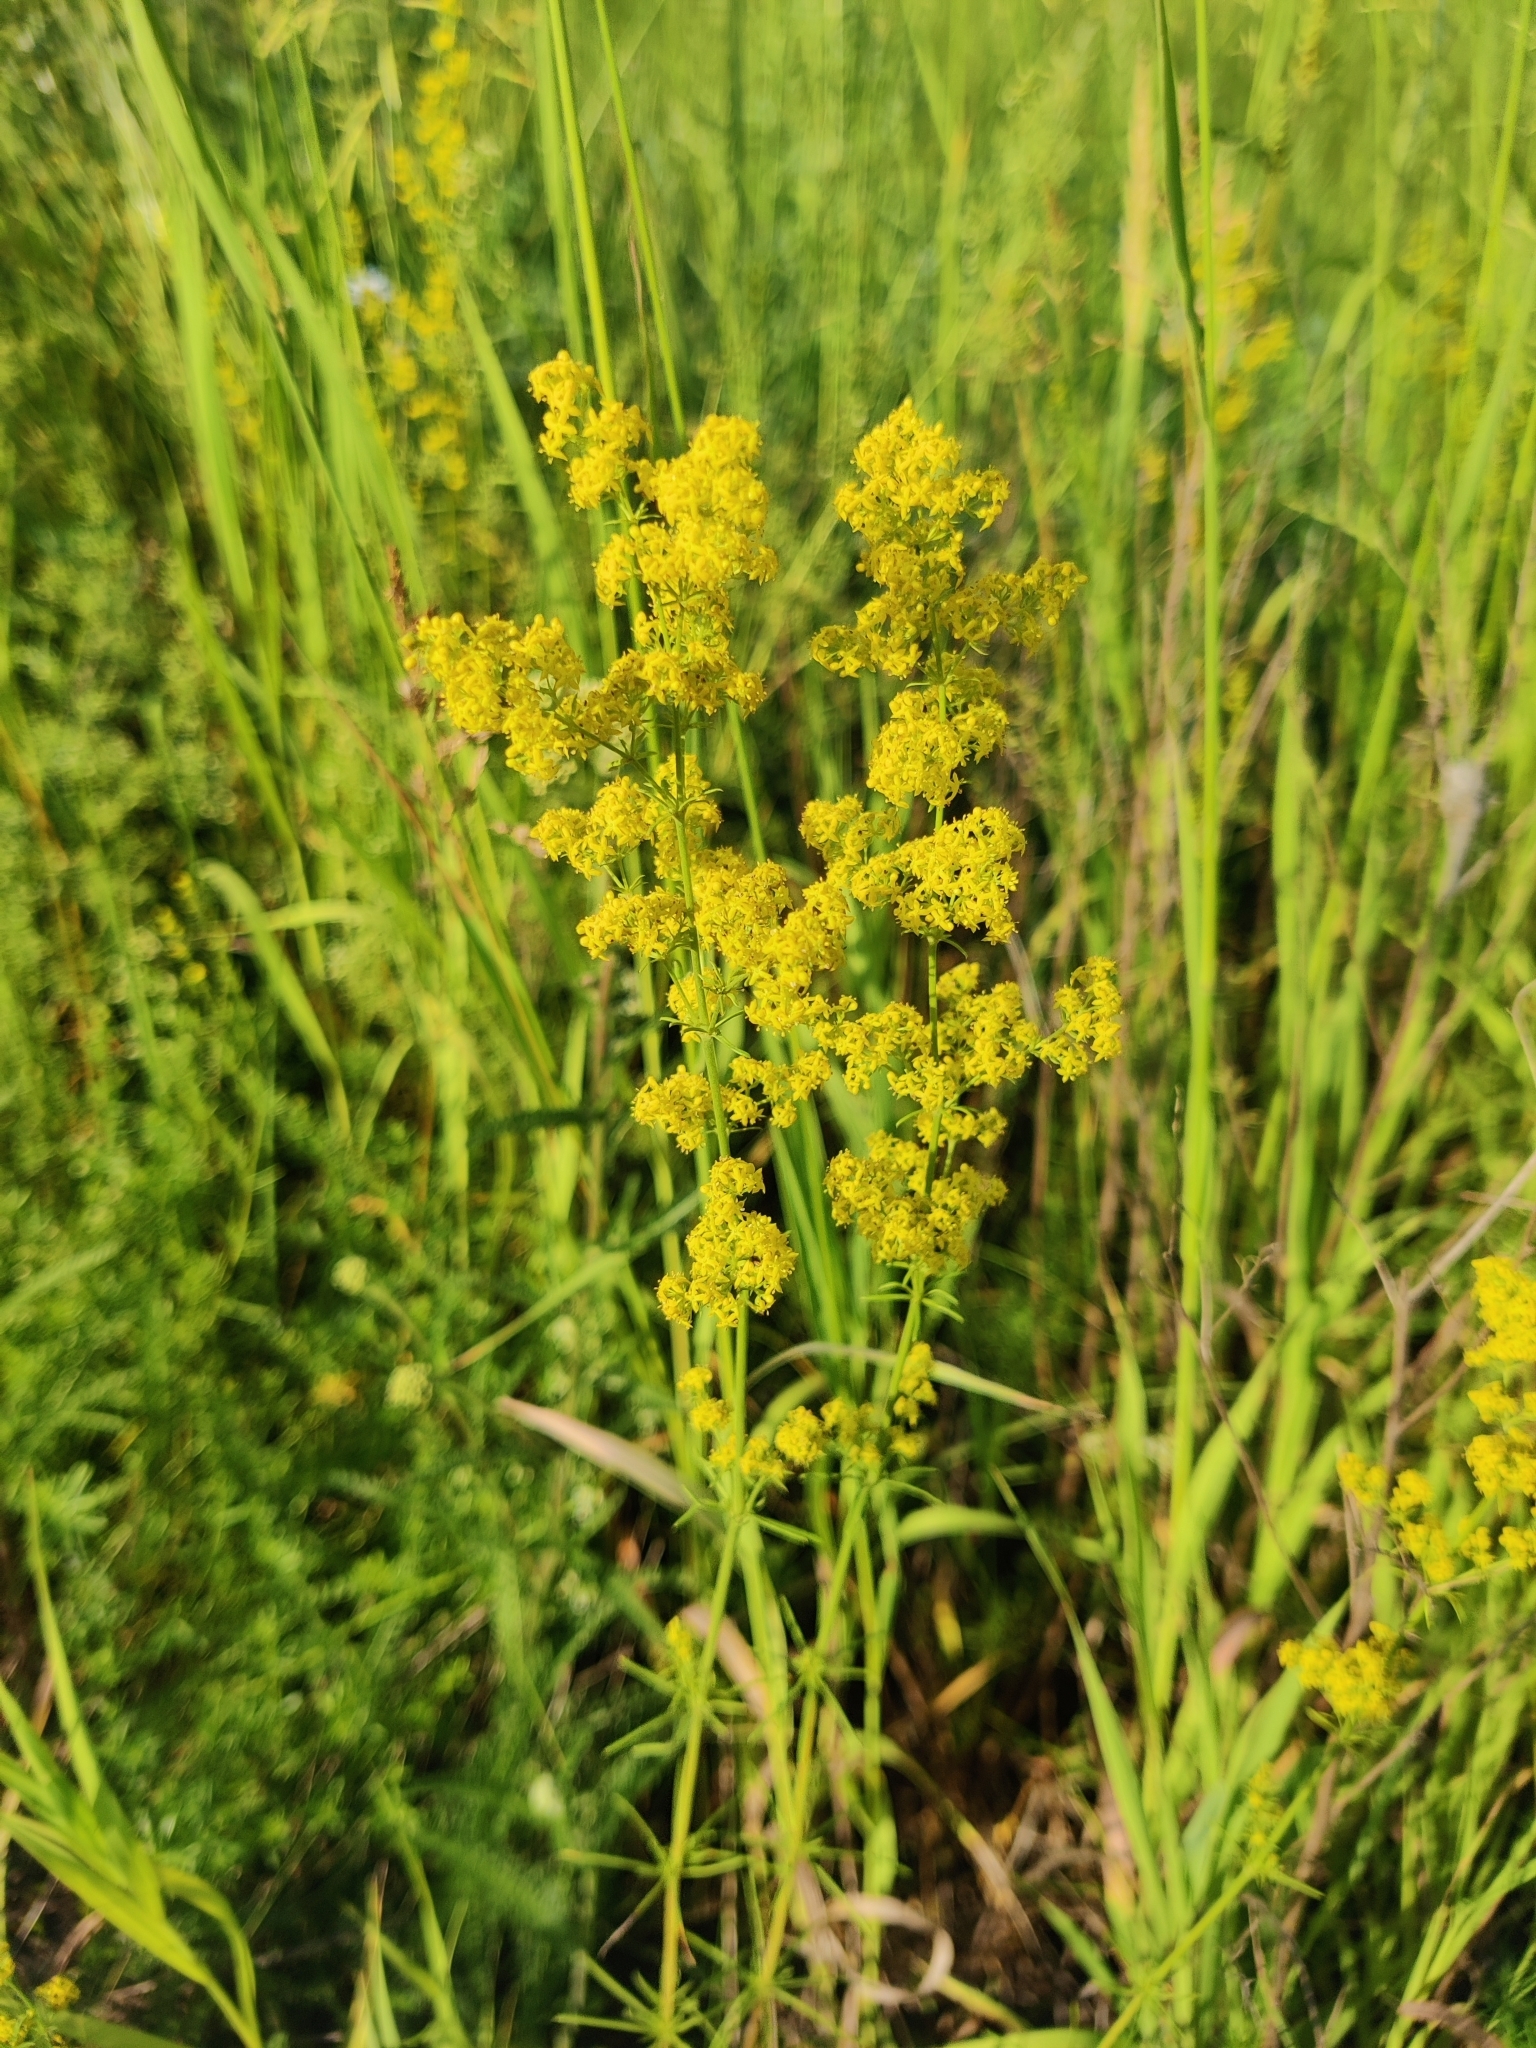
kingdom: Plantae
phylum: Tracheophyta
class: Magnoliopsida
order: Gentianales
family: Rubiaceae
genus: Galium
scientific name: Galium verum
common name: Lady's bedstraw
